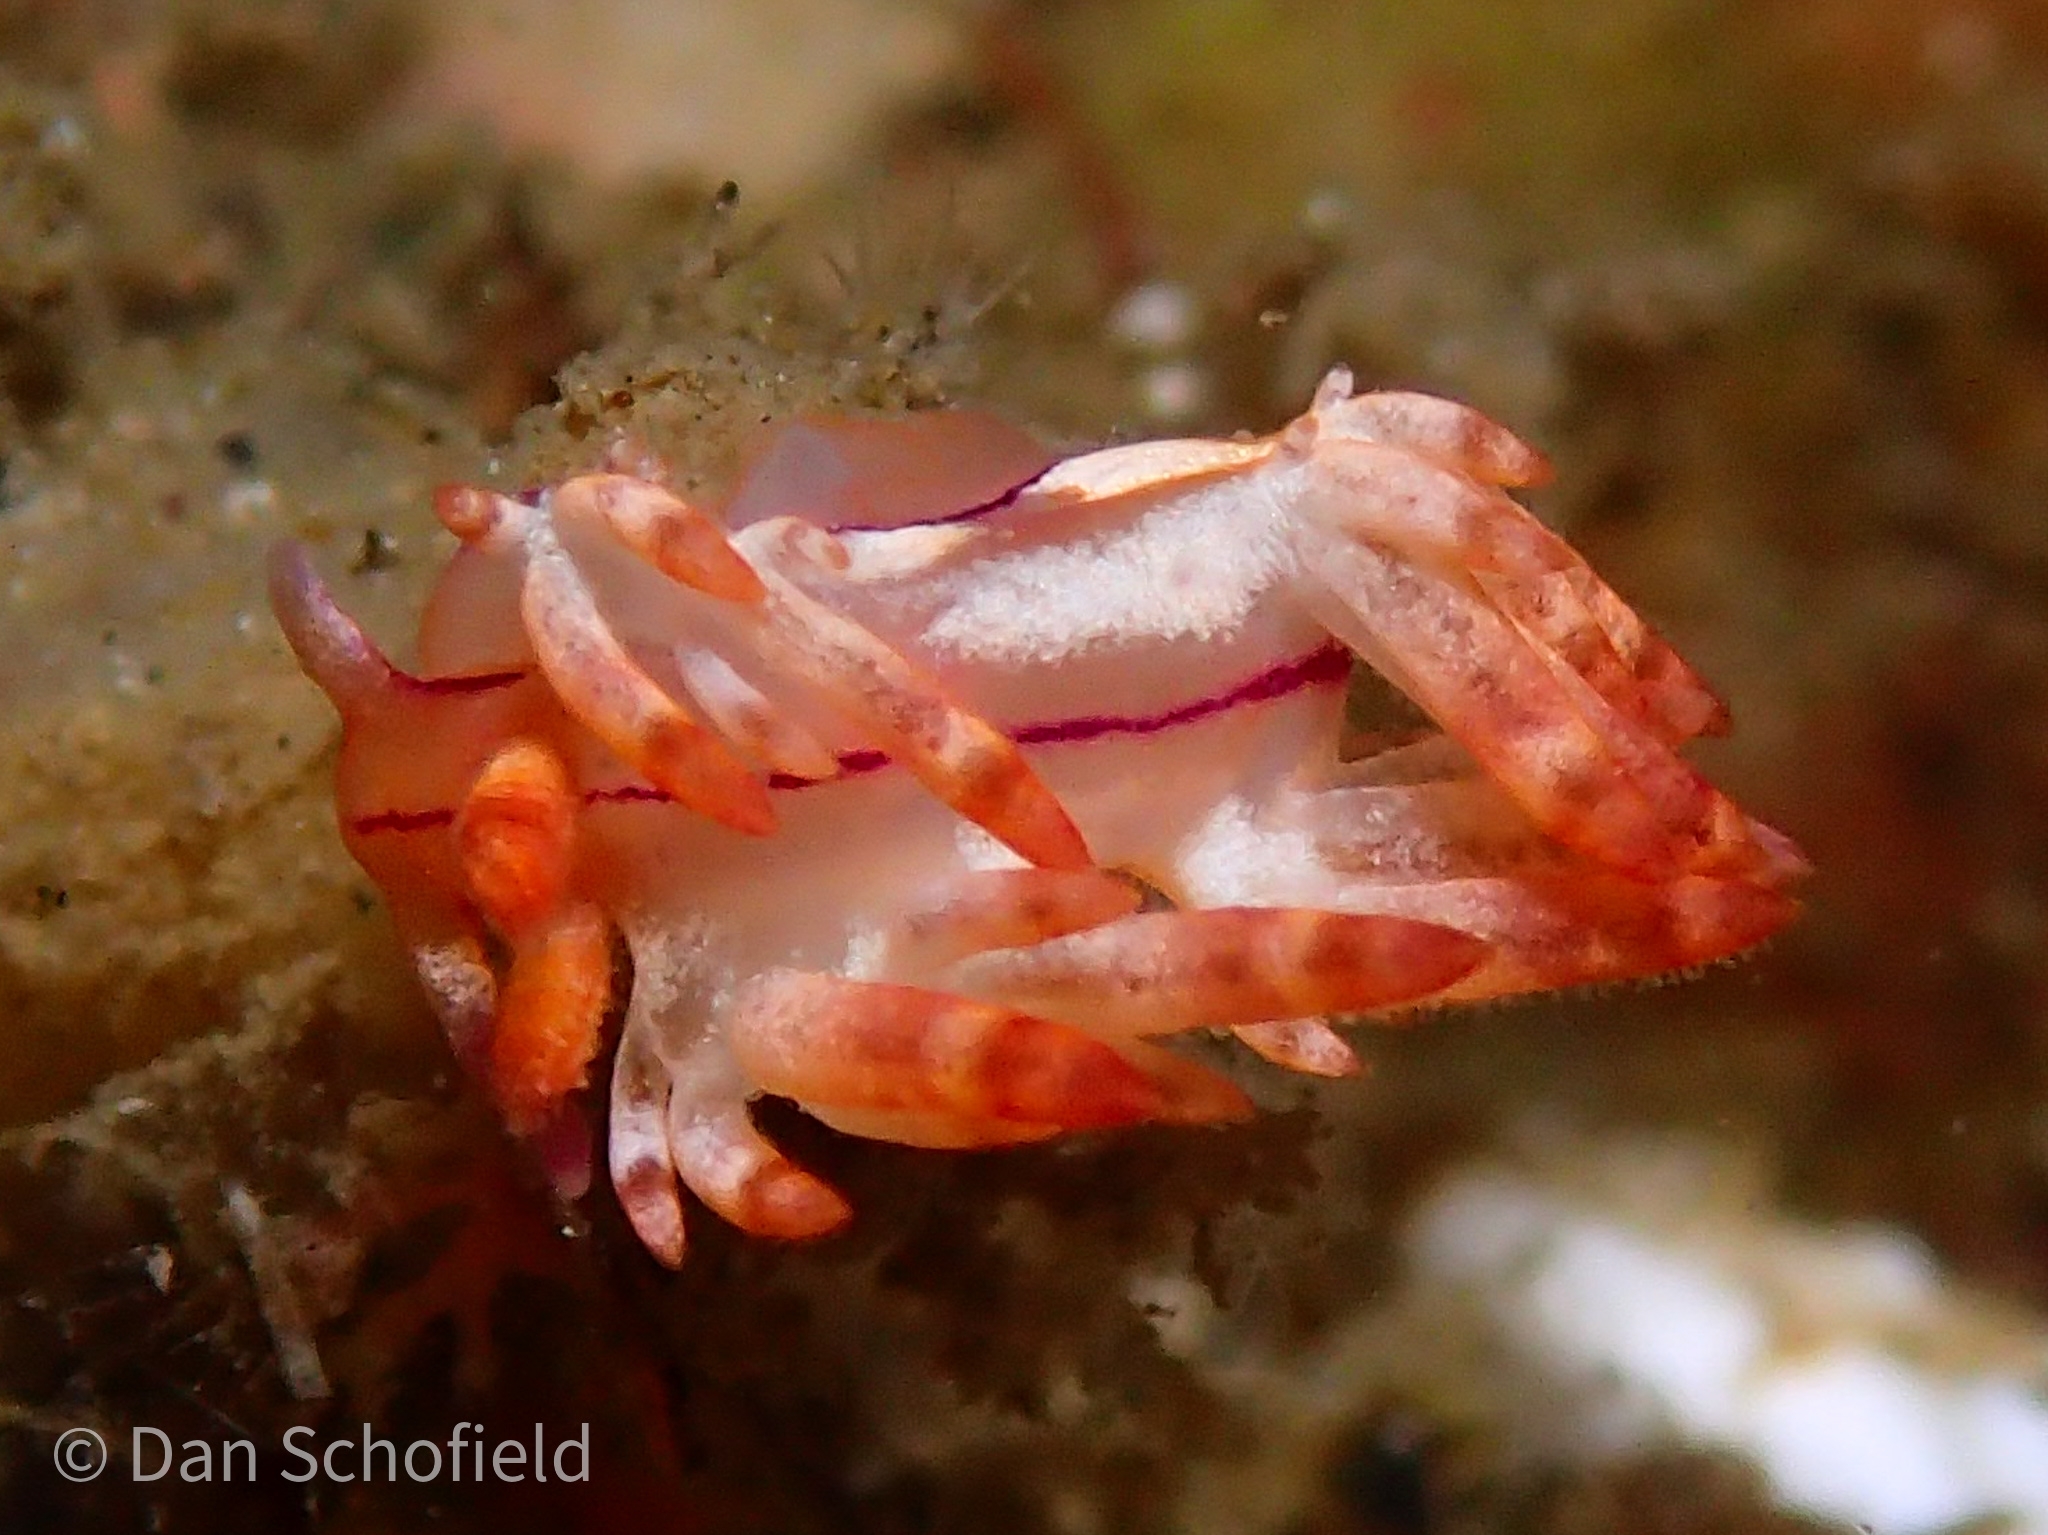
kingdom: Animalia
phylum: Mollusca
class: Gastropoda
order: Nudibranchia
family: Flabellinidae
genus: Coryphellina
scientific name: Coryphellina flamma
